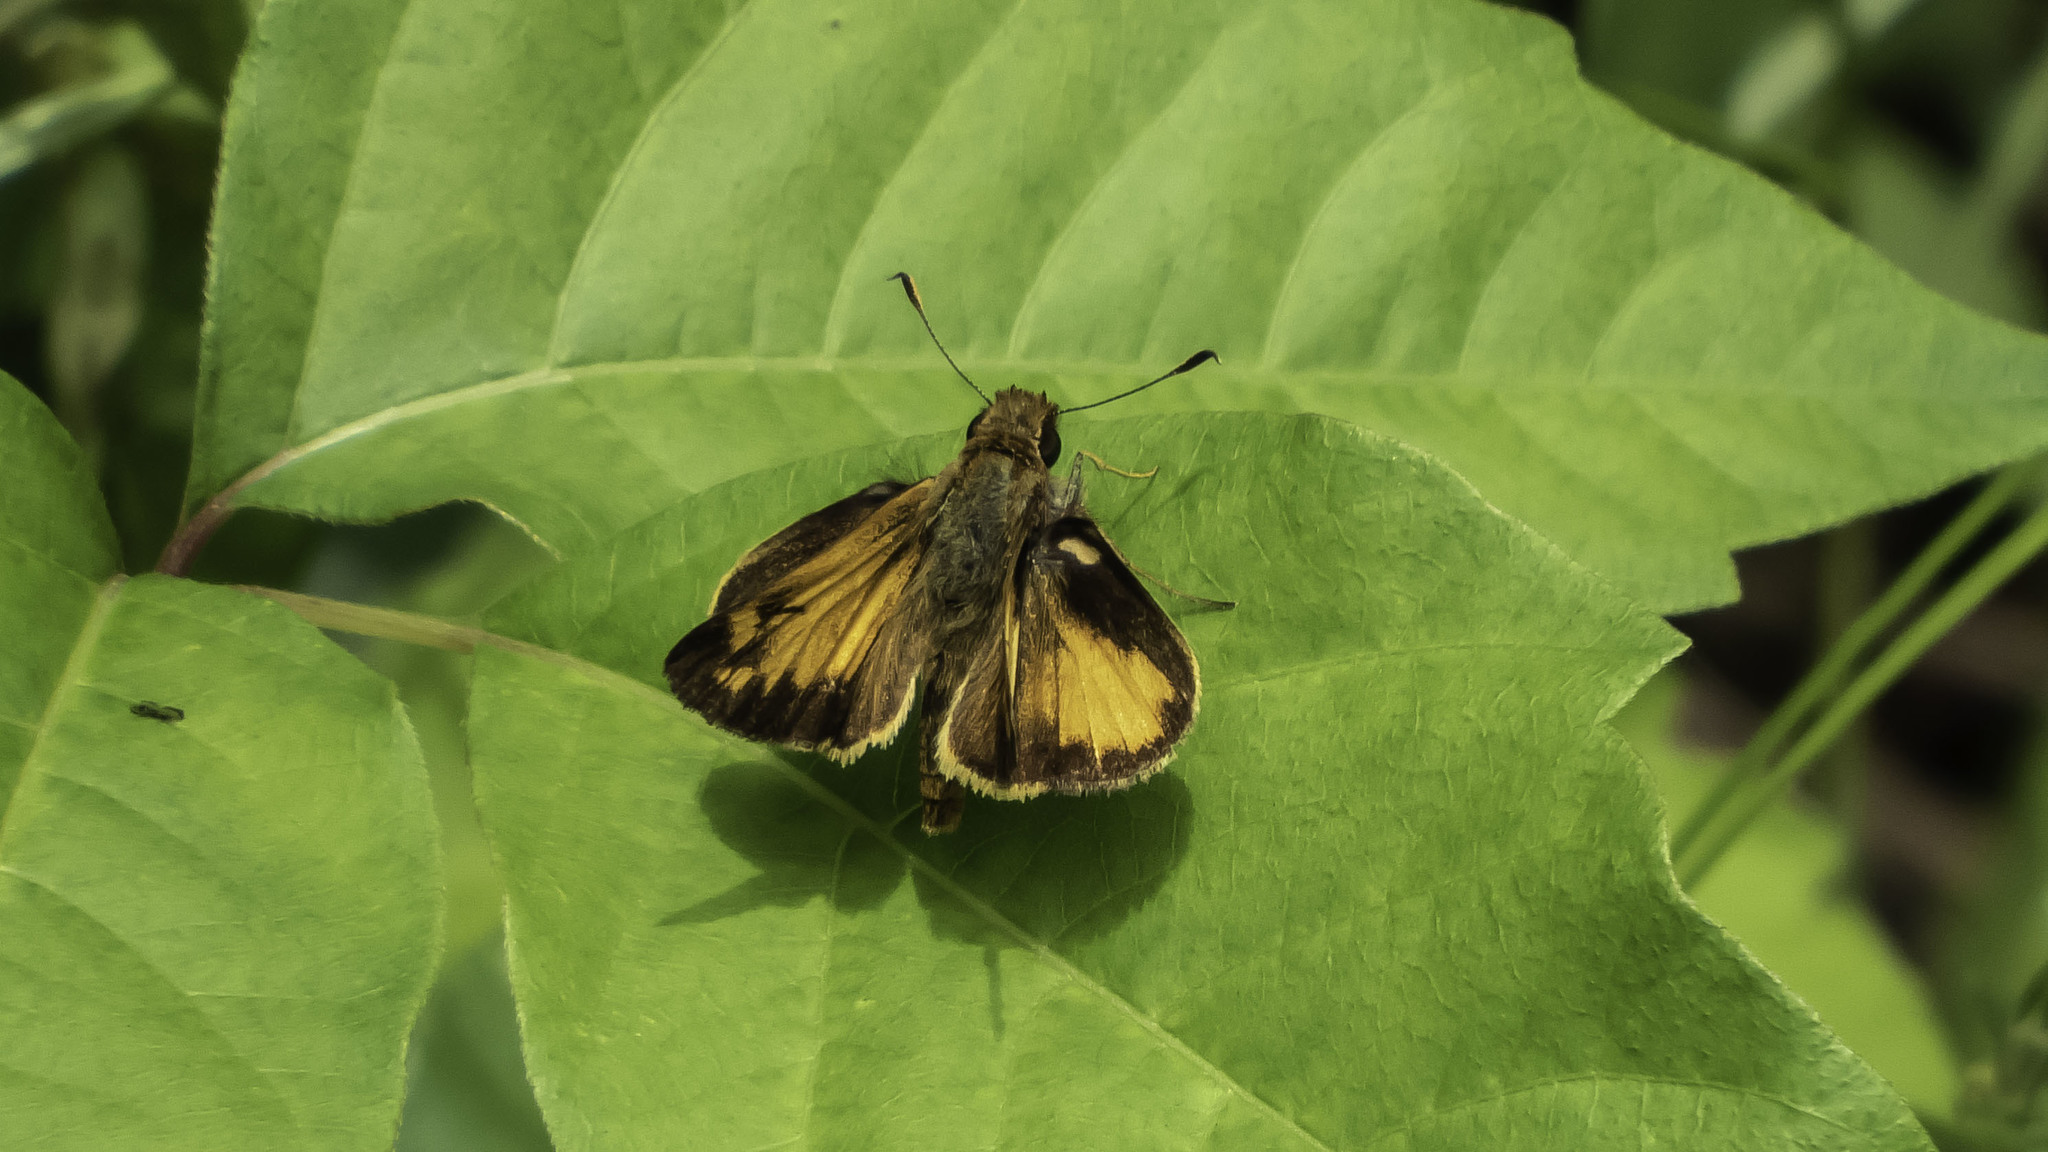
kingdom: Animalia
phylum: Arthropoda
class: Insecta
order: Lepidoptera
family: Hesperiidae
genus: Lon
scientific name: Lon zabulon
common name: Zabulon skipper
